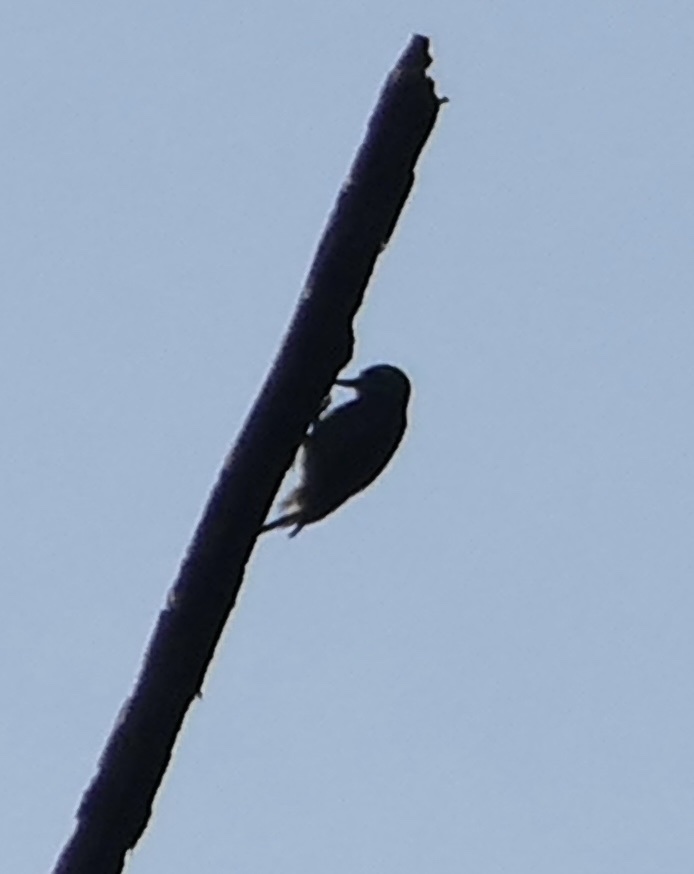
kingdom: Animalia
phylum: Chordata
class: Aves
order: Piciformes
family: Picidae
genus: Yungipicus
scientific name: Yungipicus temminckii
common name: Sulawesi pygmy woodpecker
